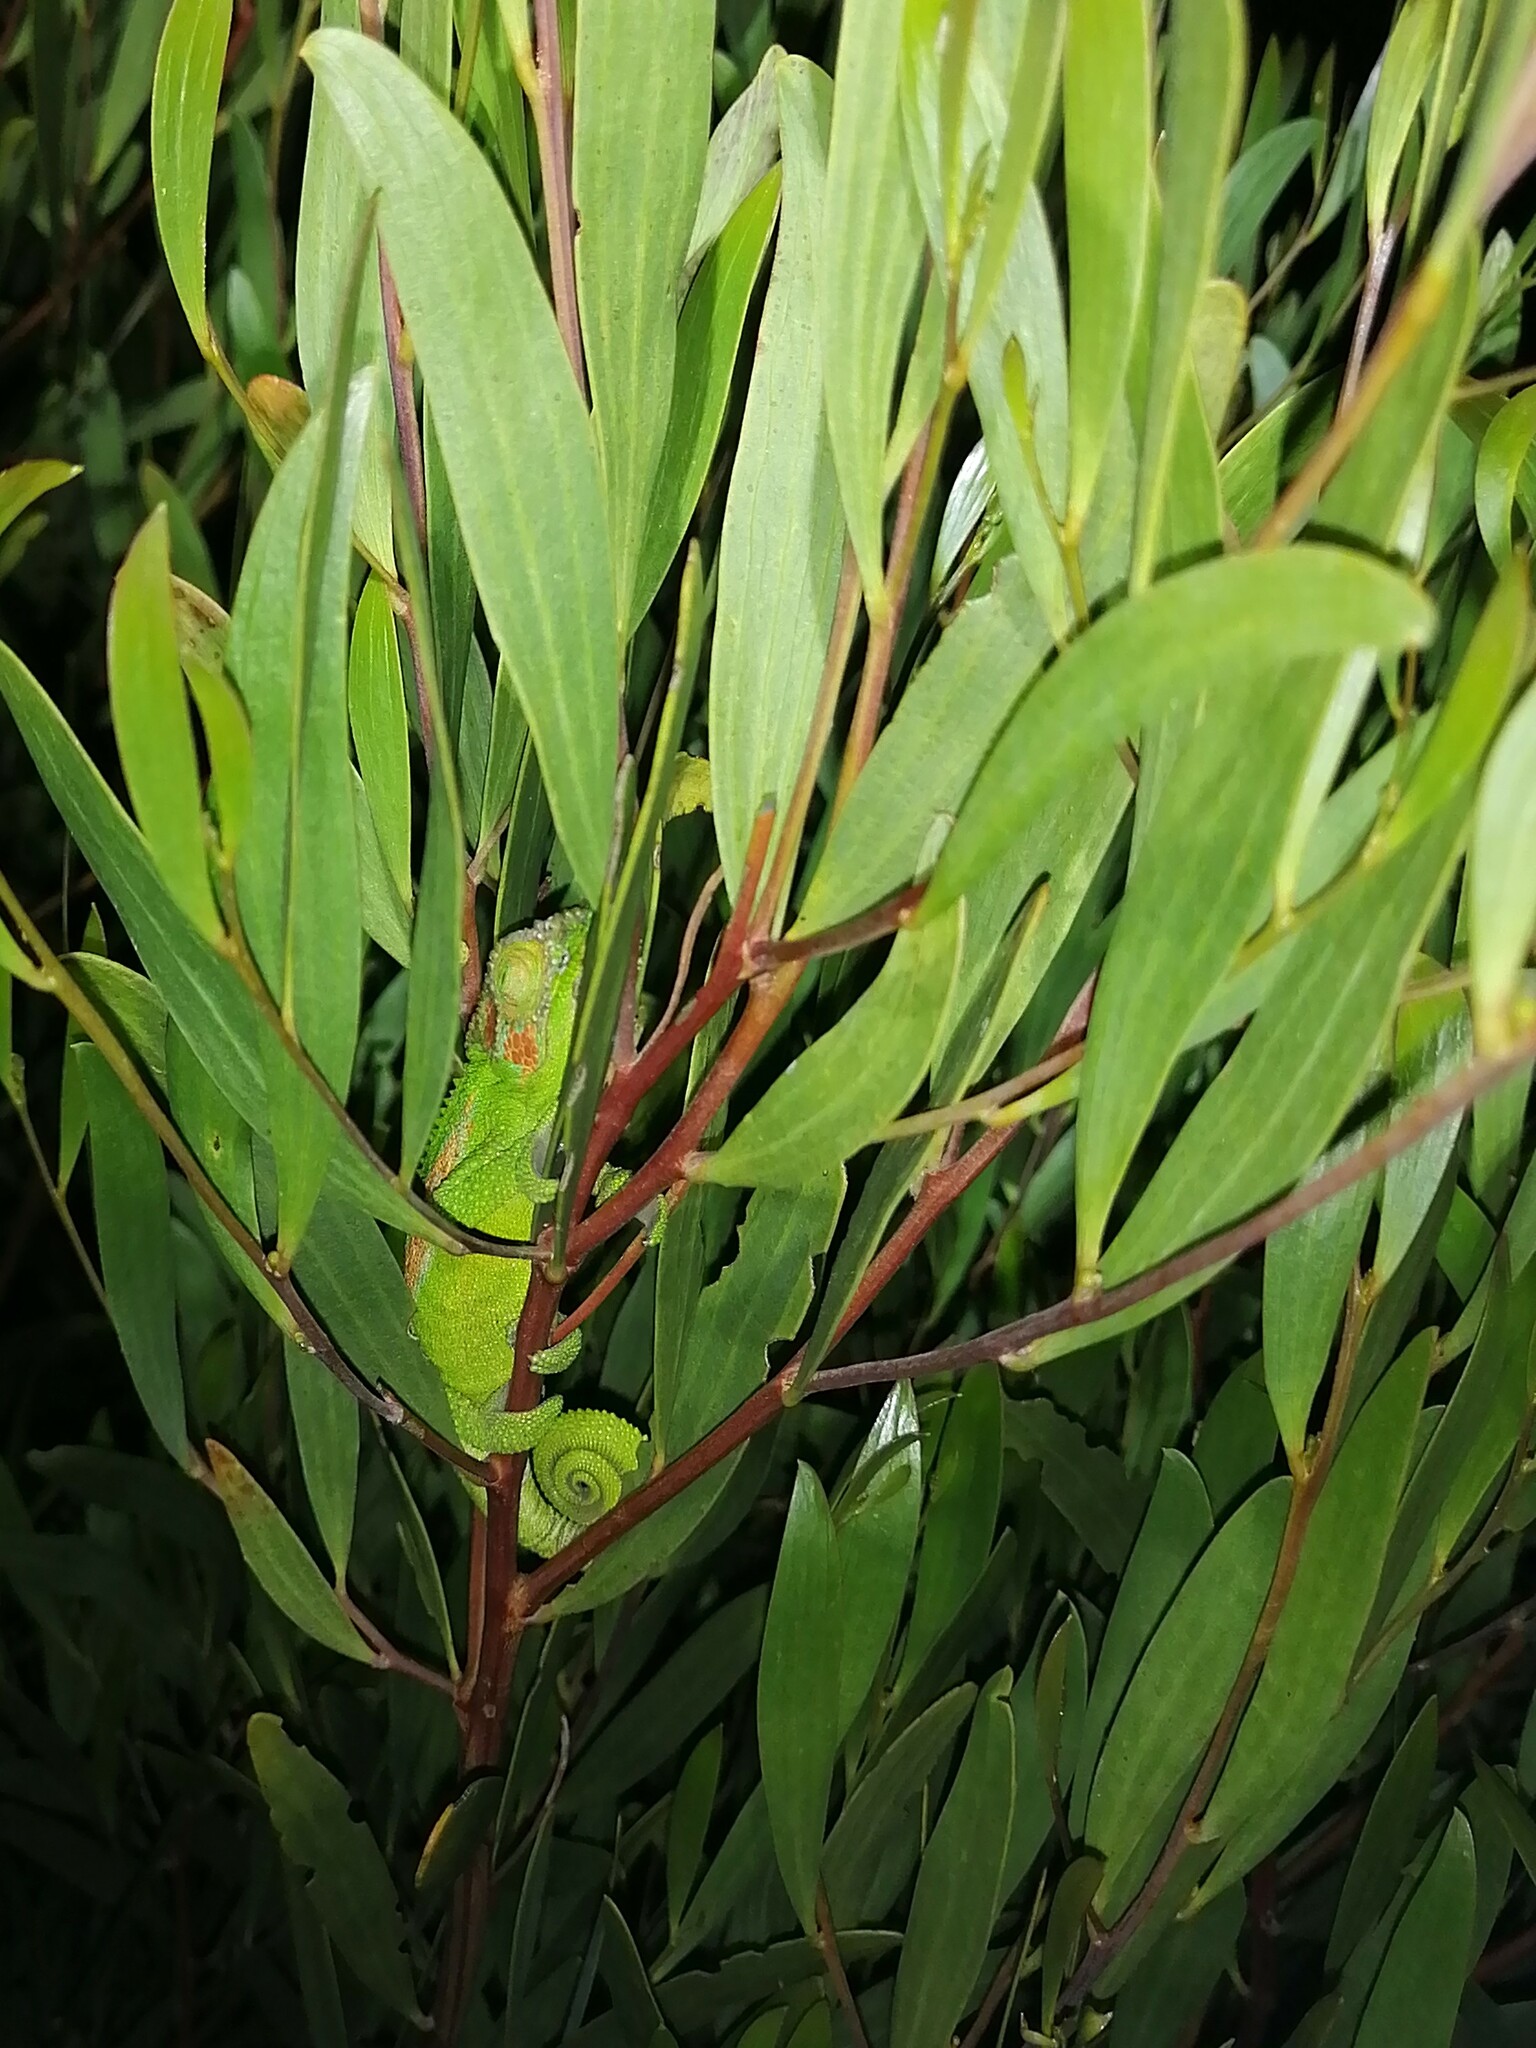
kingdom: Animalia
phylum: Chordata
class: Squamata
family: Chamaeleonidae
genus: Bradypodion
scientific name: Bradypodion pumilum
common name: Cape dwarf chameleon
